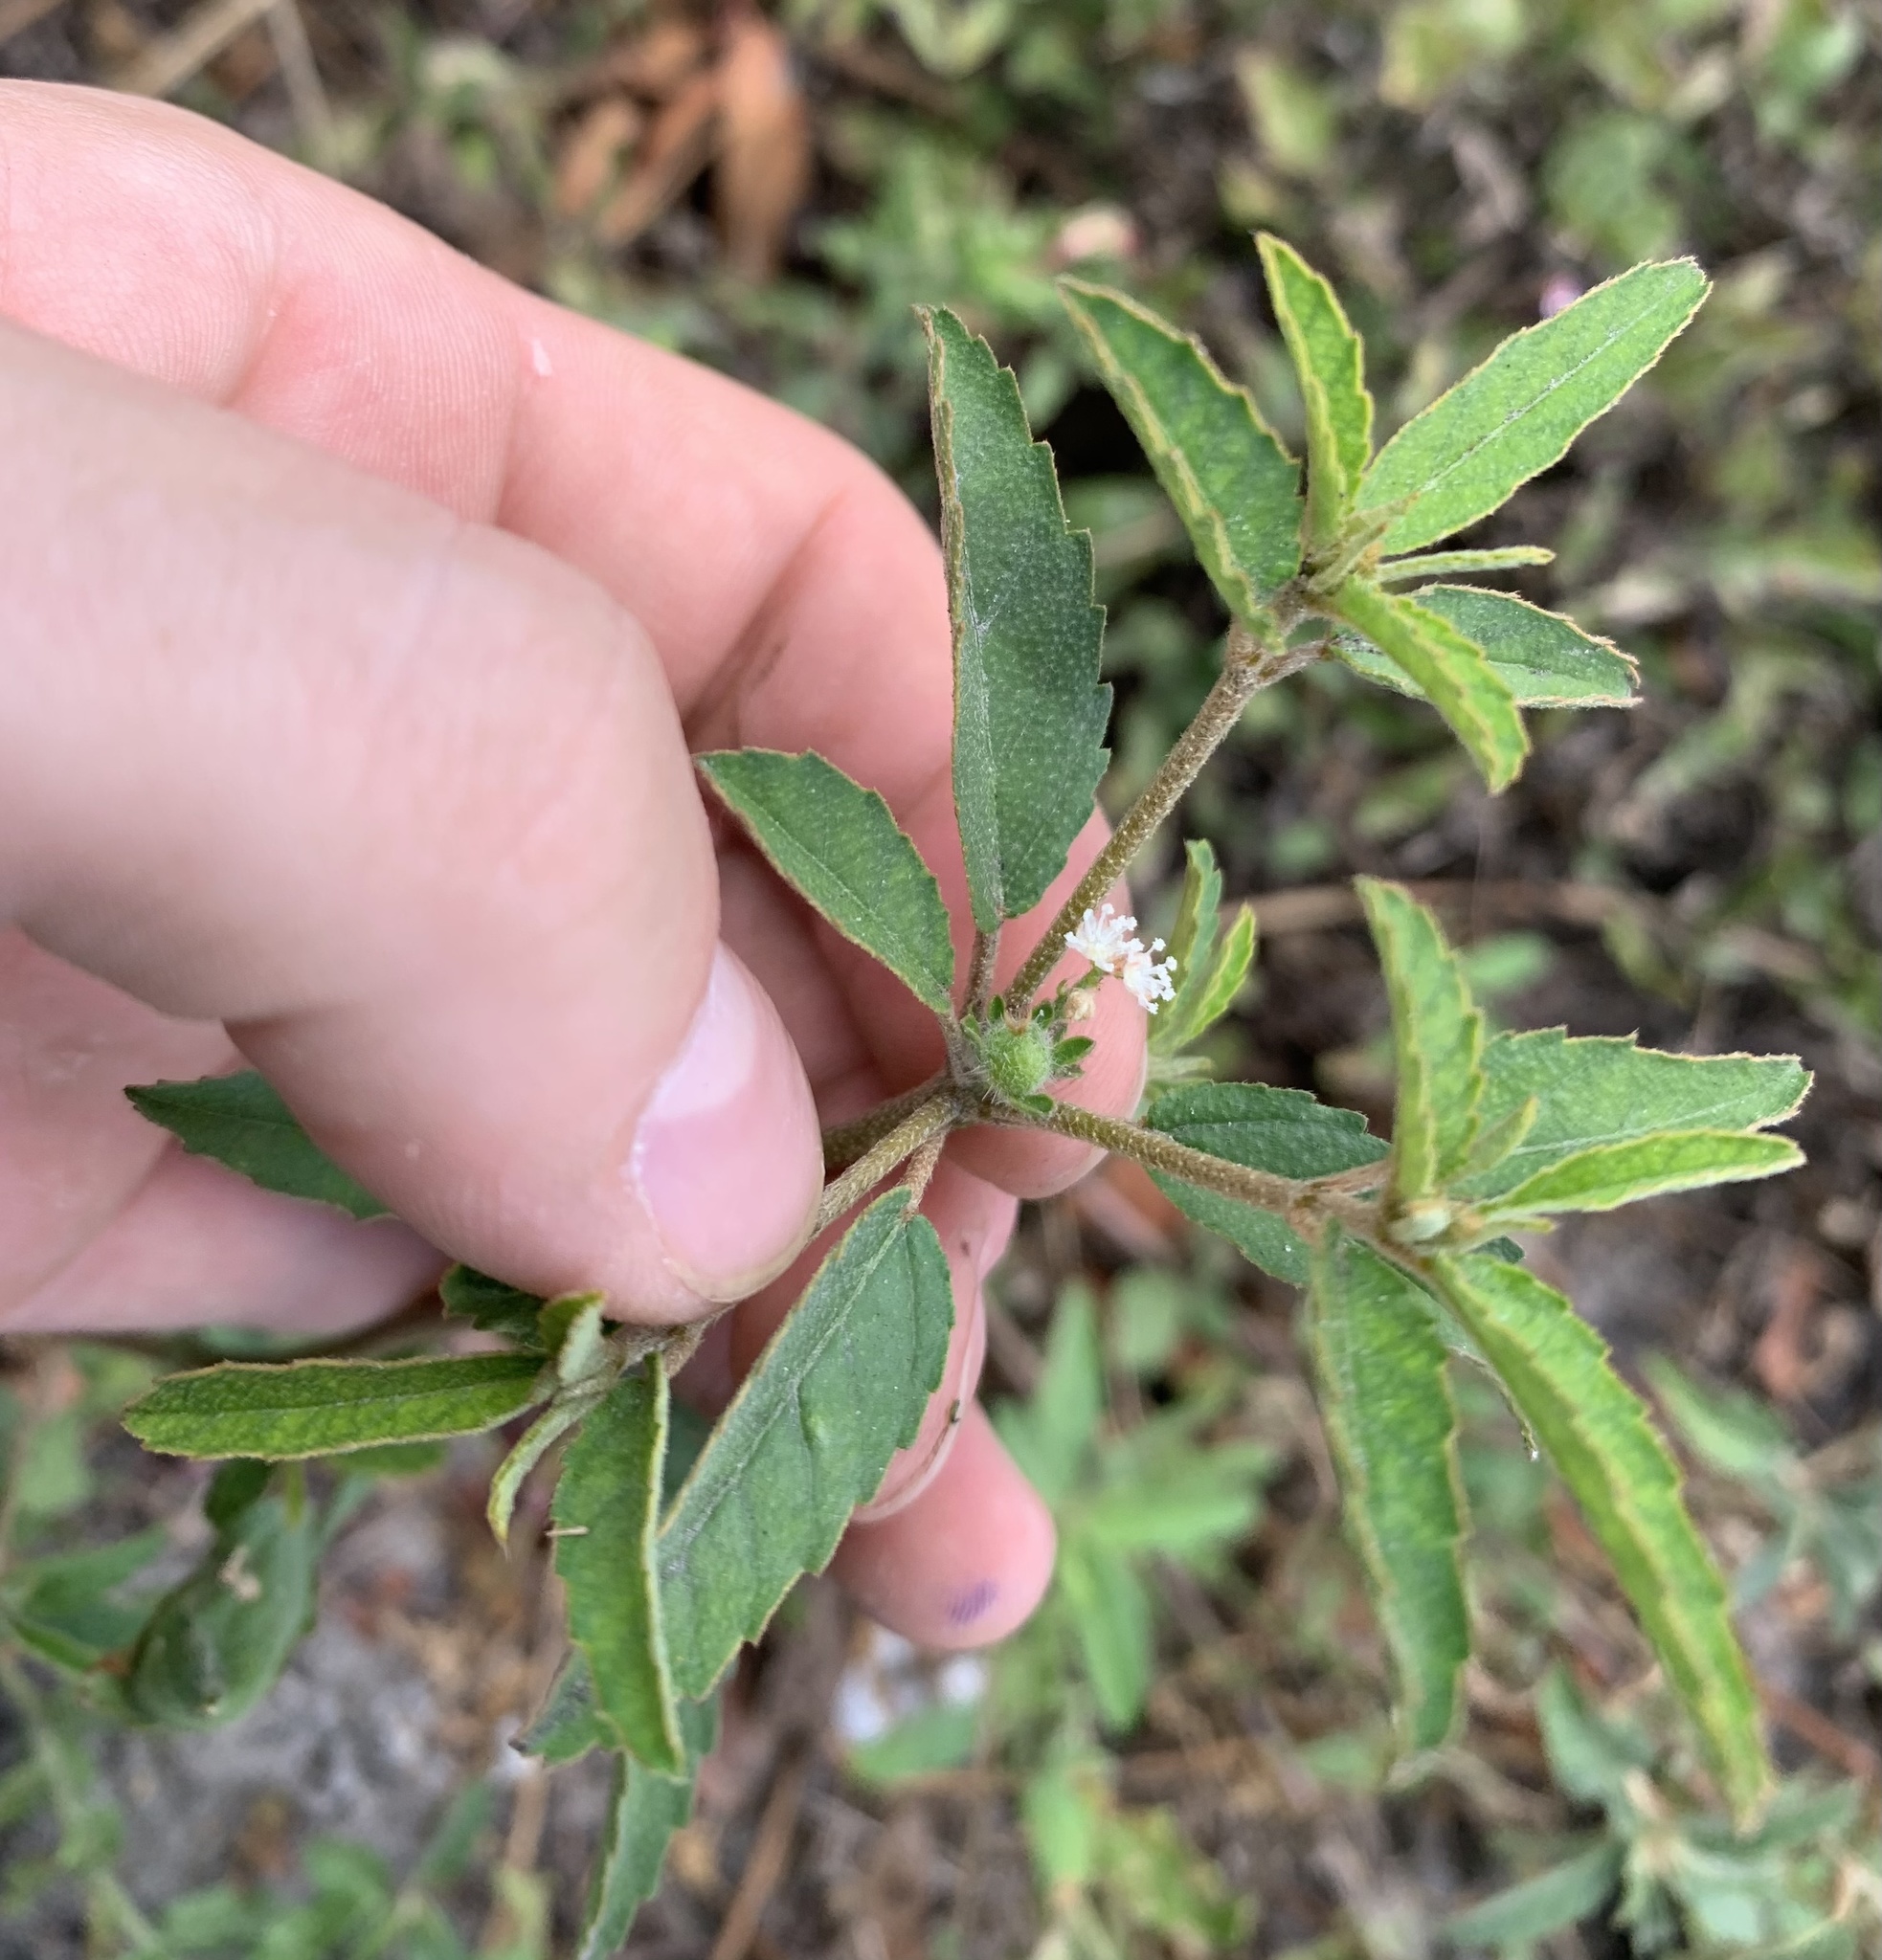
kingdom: Plantae
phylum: Tracheophyta
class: Magnoliopsida
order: Malpighiales
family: Euphorbiaceae
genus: Croton
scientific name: Croton glandulosus
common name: Tropic croton
